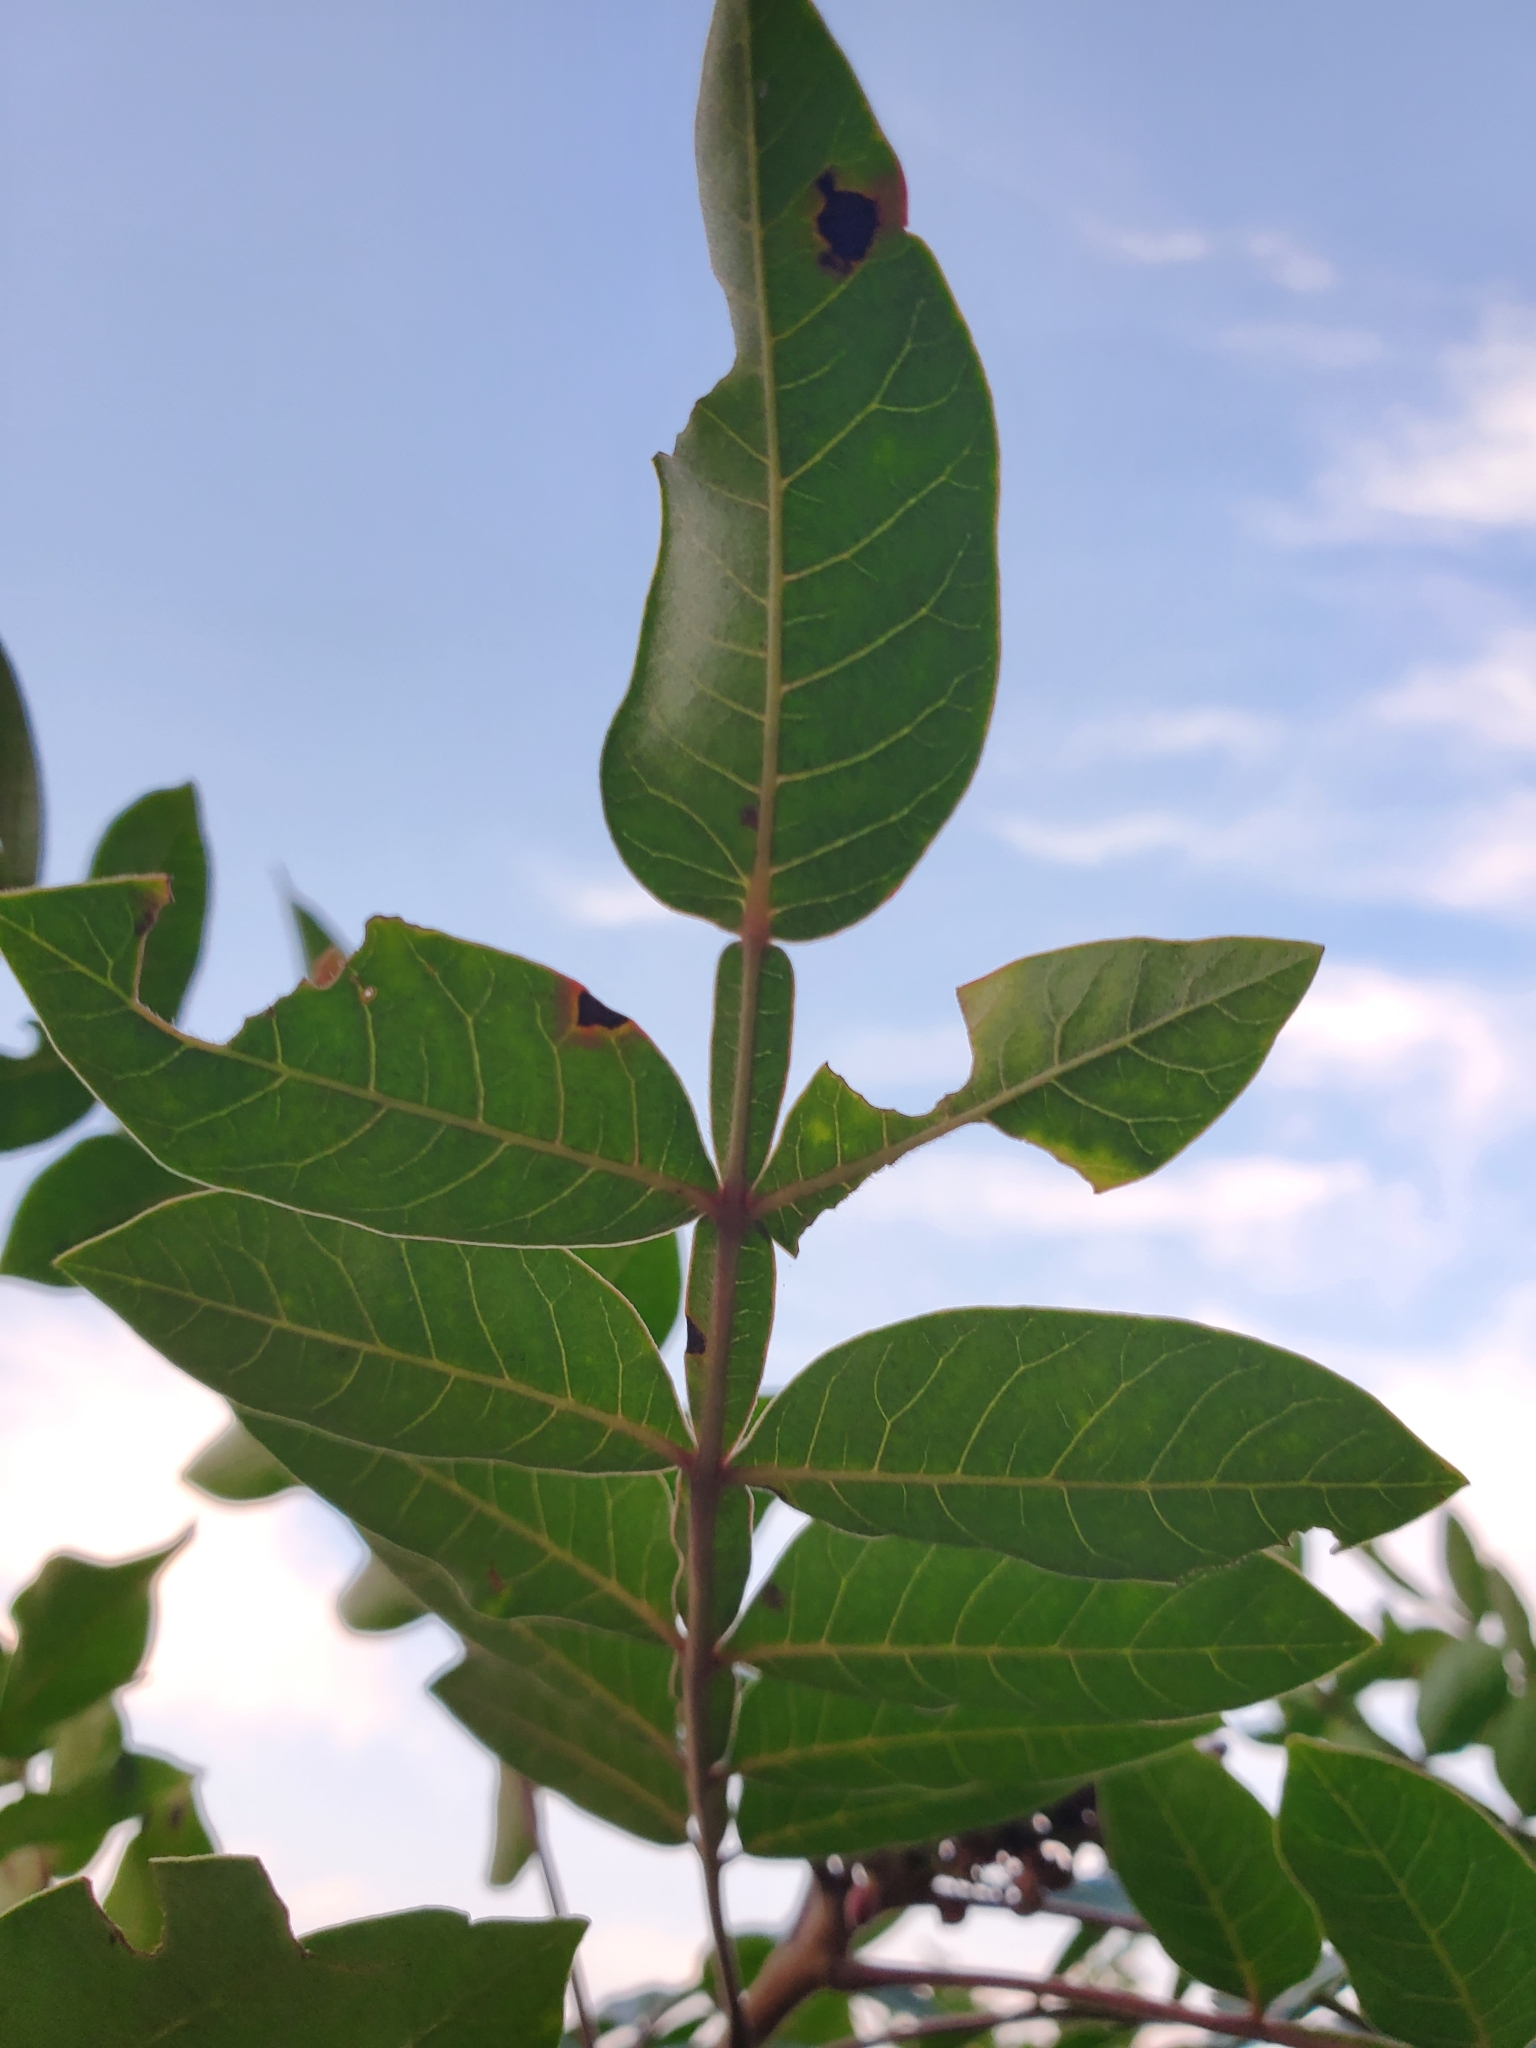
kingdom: Plantae
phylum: Tracheophyta
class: Magnoliopsida
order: Sapindales
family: Anacardiaceae
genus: Rhus
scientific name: Rhus copallina
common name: Shining sumac
